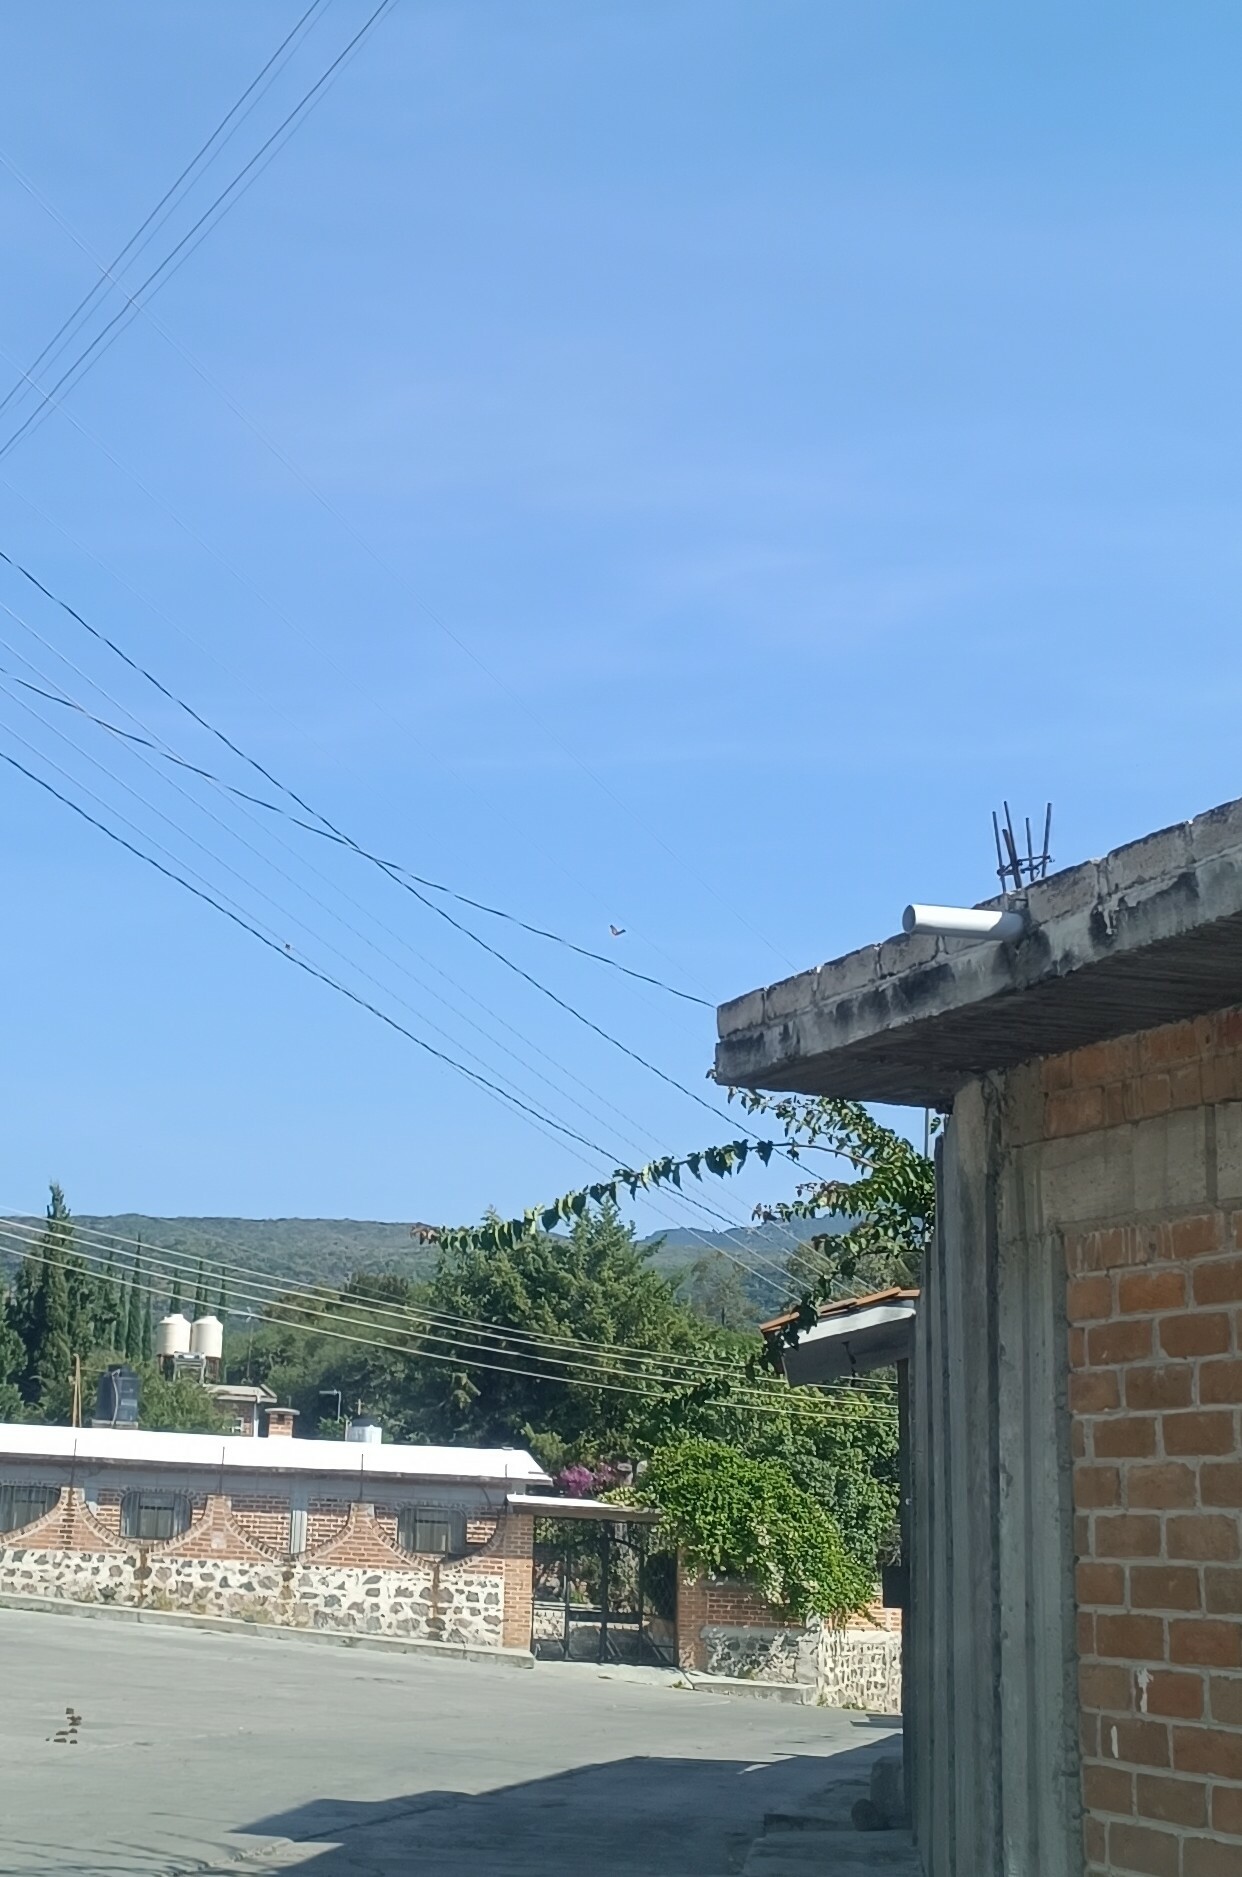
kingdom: Animalia
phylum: Arthropoda
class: Insecta
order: Lepidoptera
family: Nymphalidae
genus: Danaus
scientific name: Danaus plexippus
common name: Monarch
